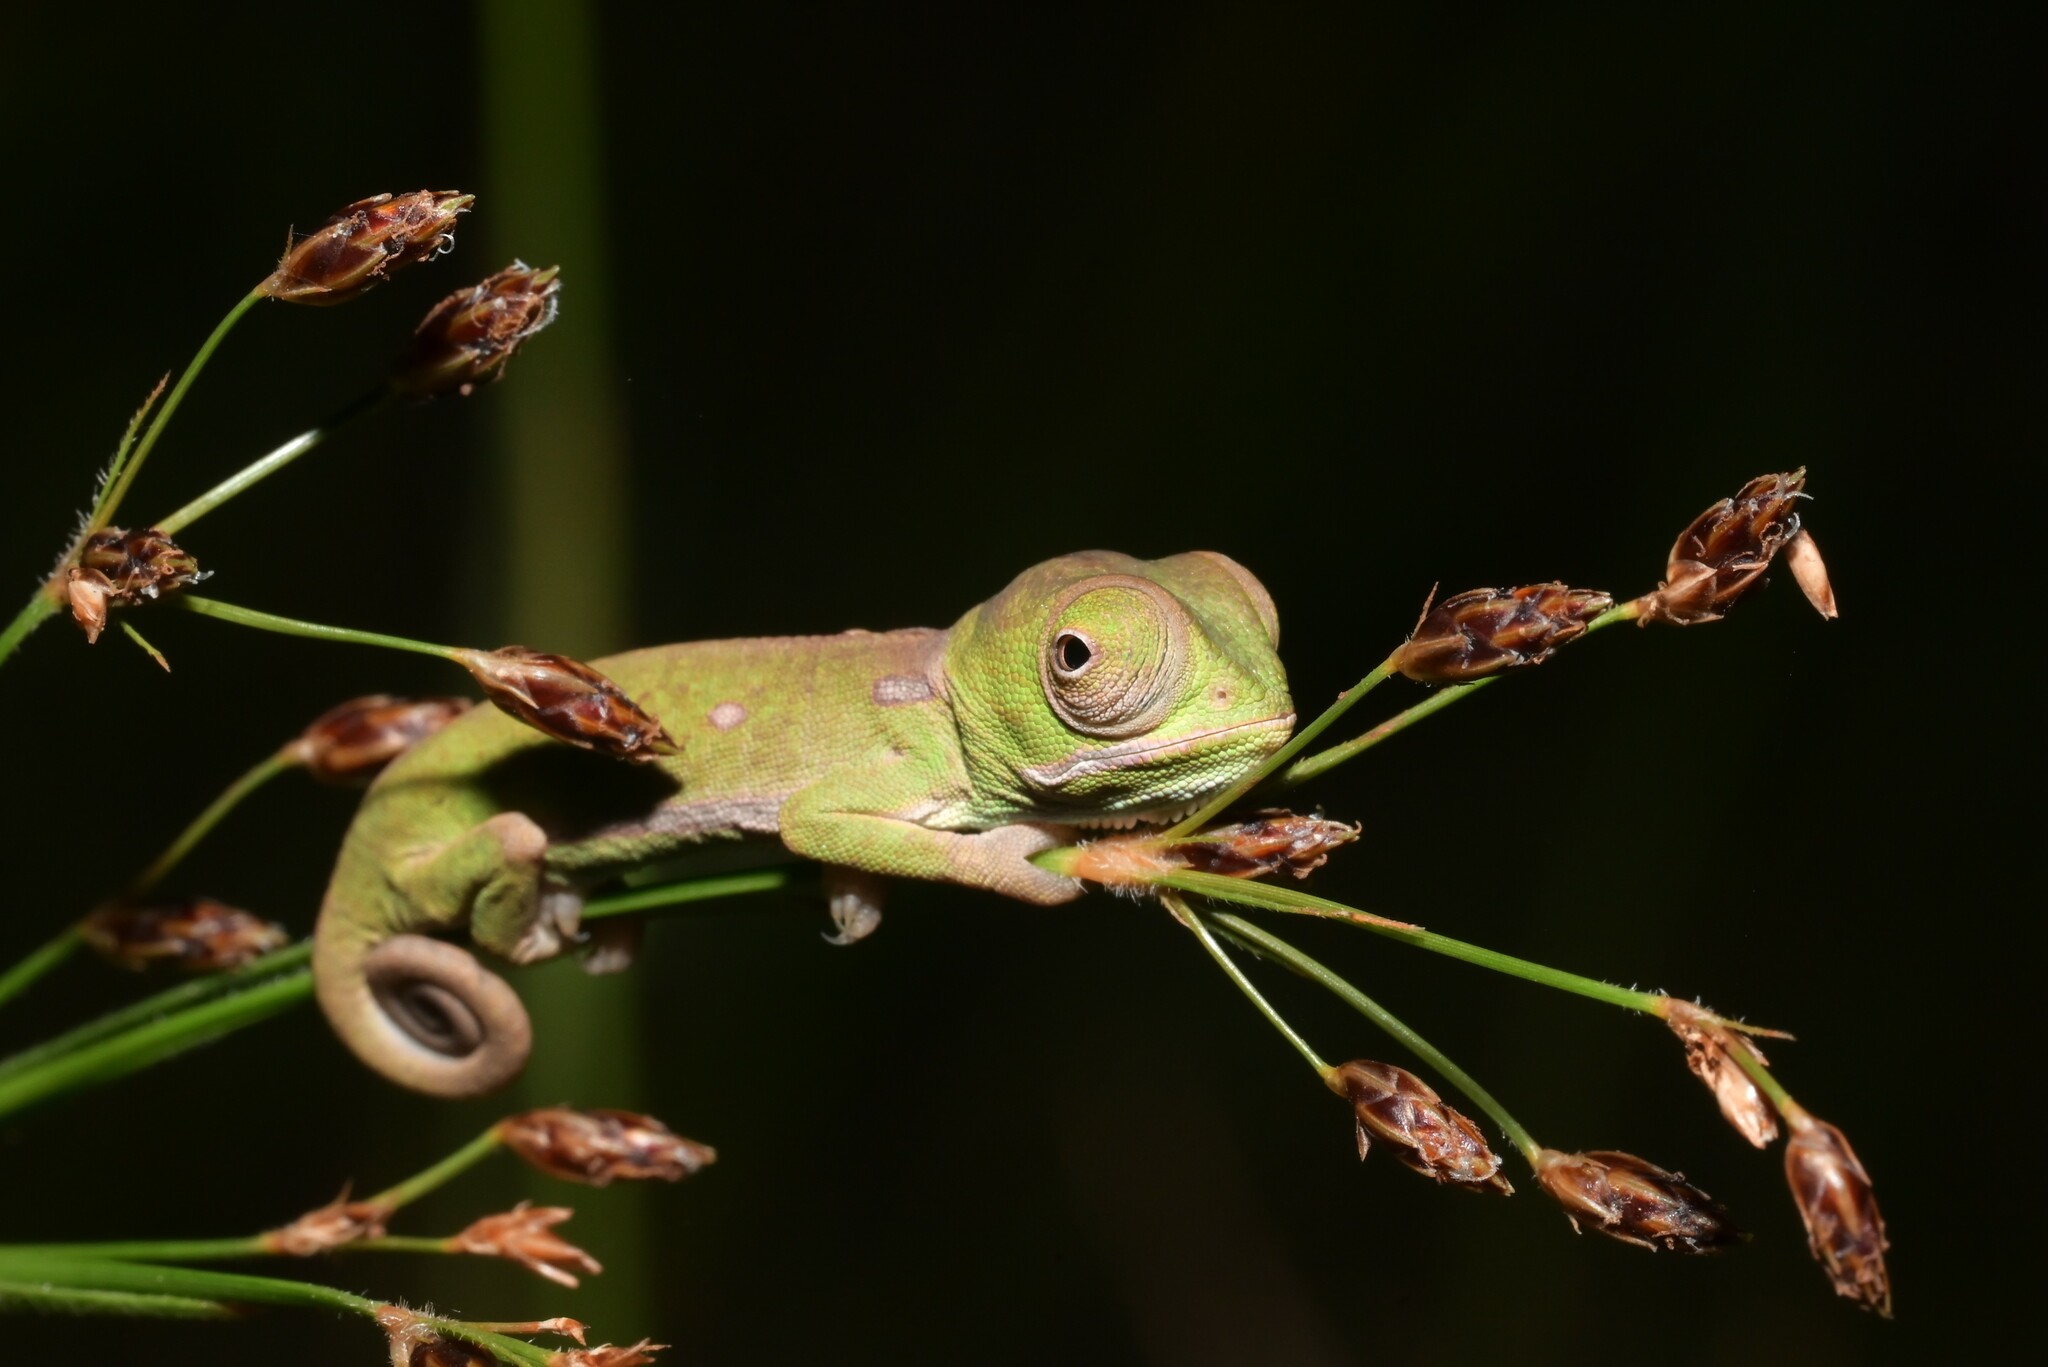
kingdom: Animalia
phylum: Chordata
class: Squamata
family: Chamaeleonidae
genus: Chamaeleo
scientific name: Chamaeleo dilepis
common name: Flapneck chameleon
